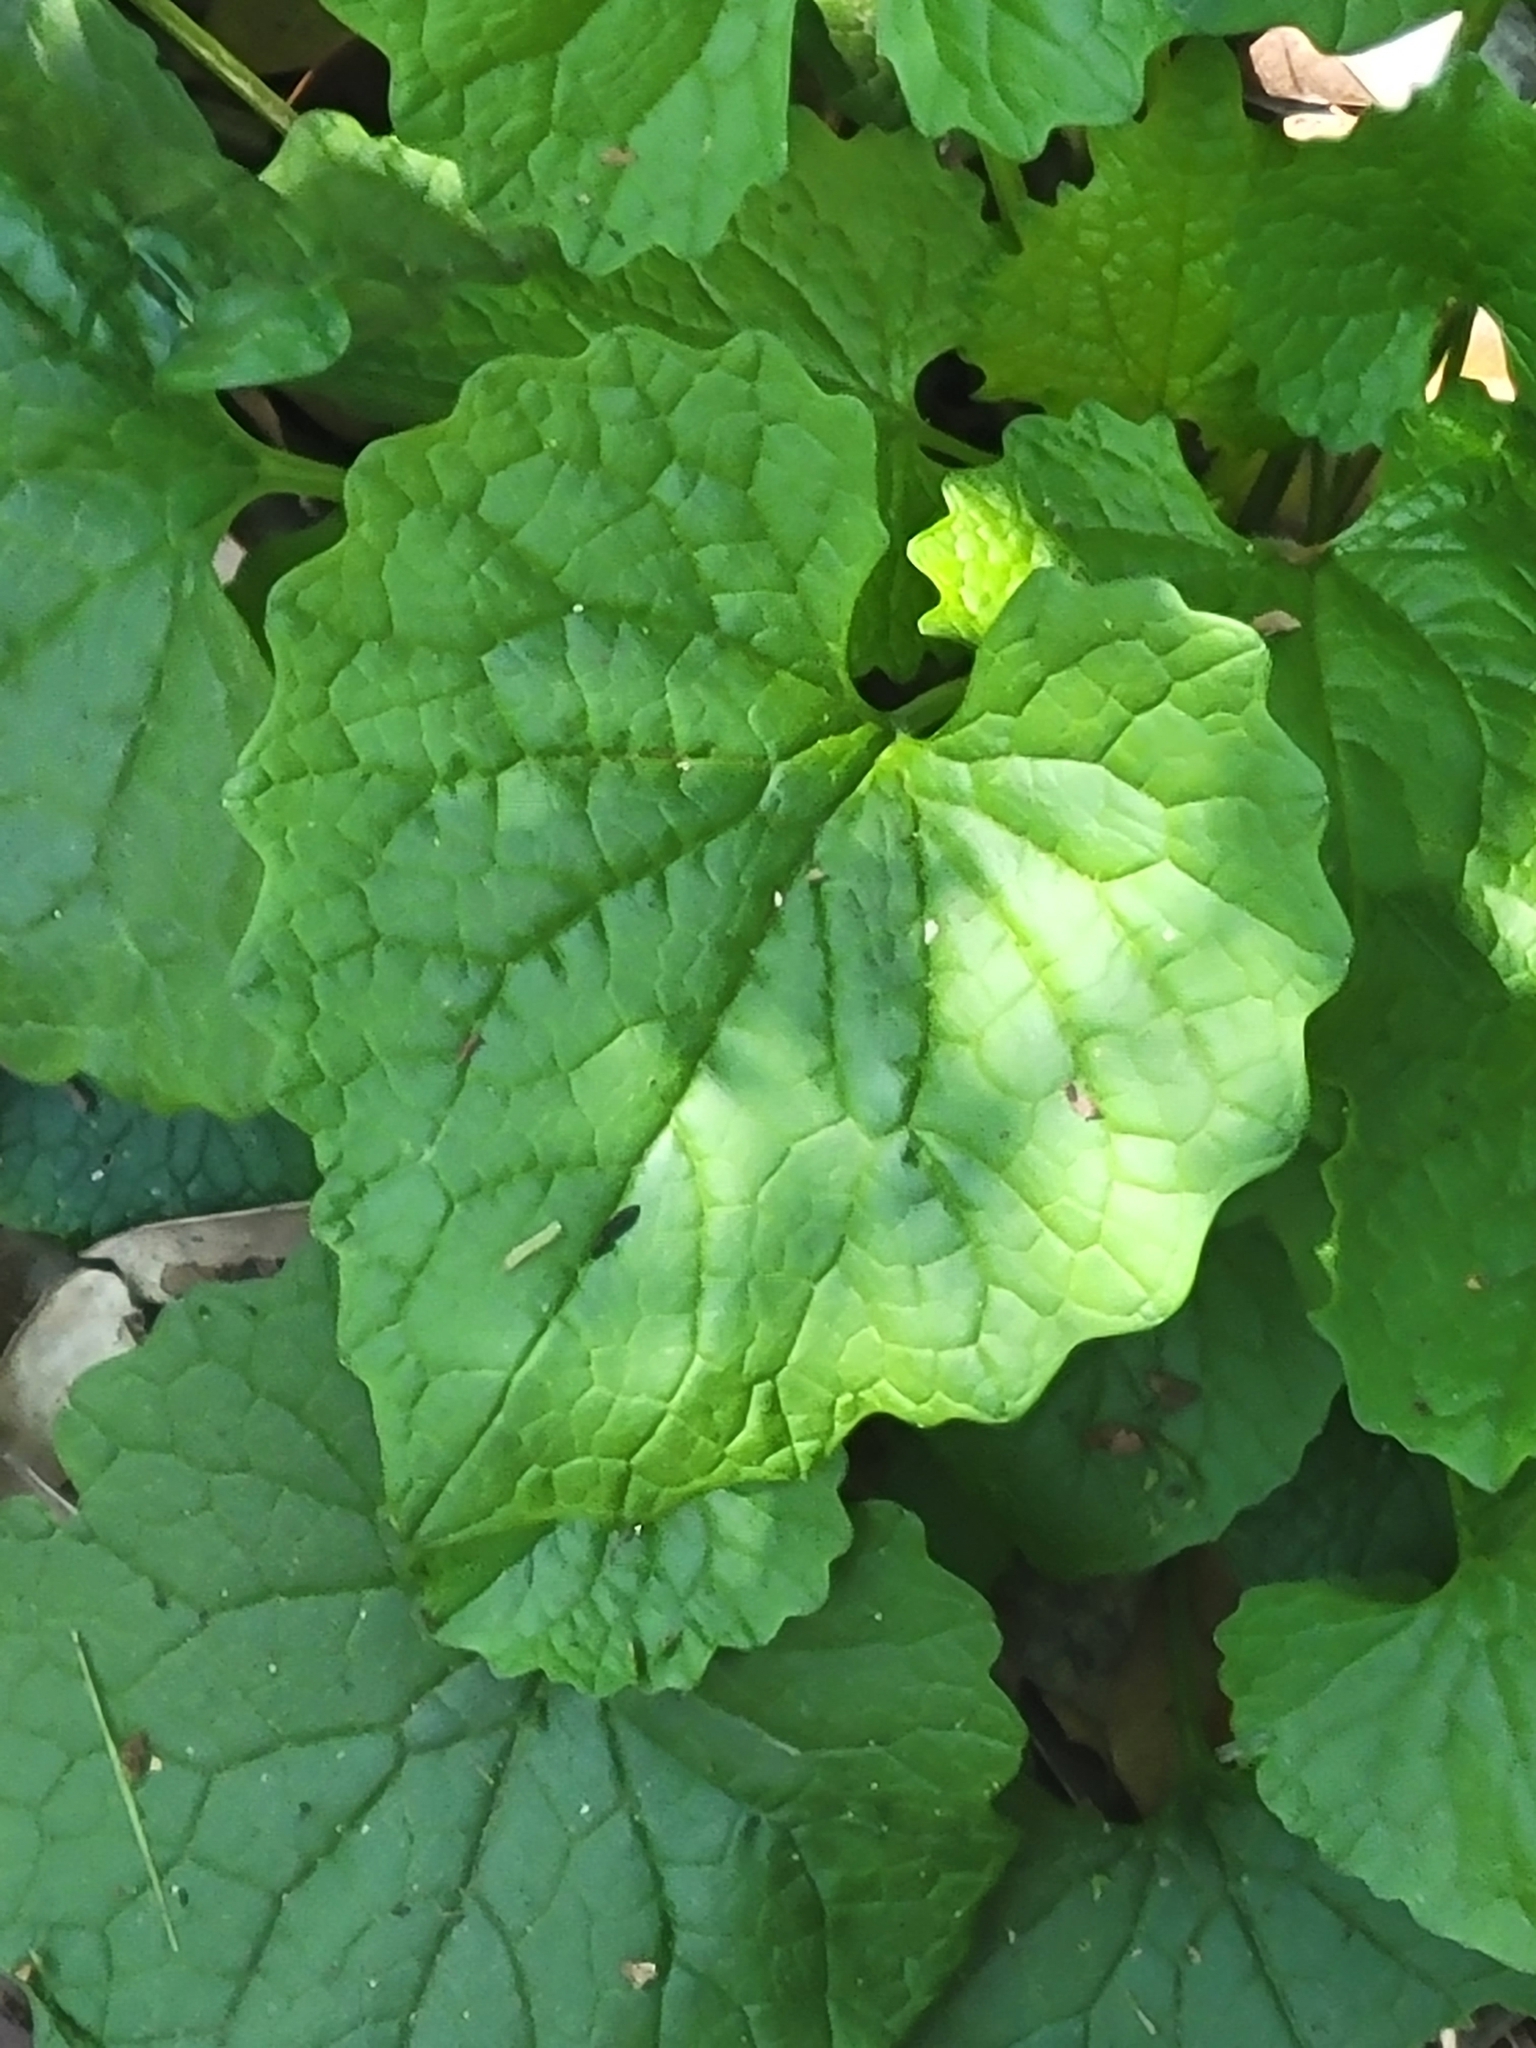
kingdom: Plantae
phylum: Tracheophyta
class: Magnoliopsida
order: Brassicales
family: Brassicaceae
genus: Alliaria
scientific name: Alliaria petiolata
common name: Garlic mustard
